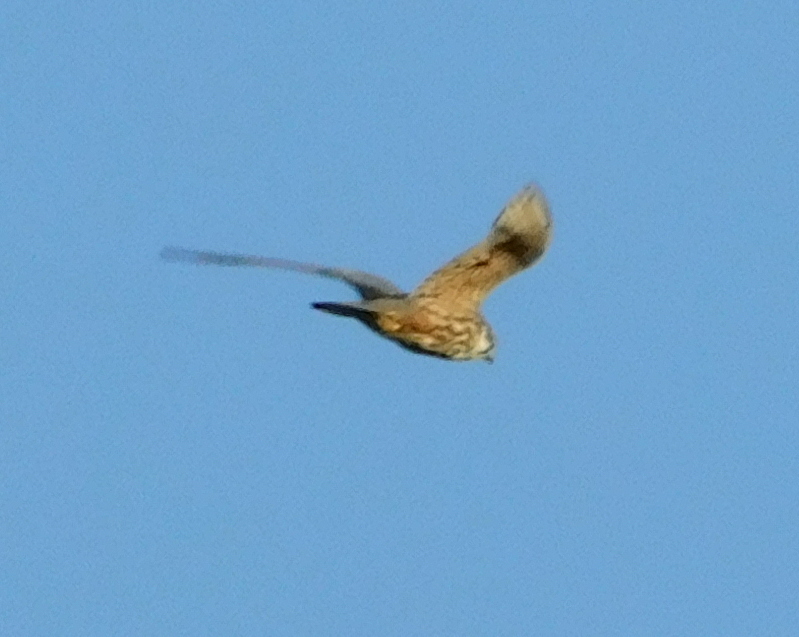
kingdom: Animalia
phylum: Chordata
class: Aves
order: Falconiformes
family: Falconidae
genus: Falco
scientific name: Falco subbuteo
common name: Eurasian hobby
